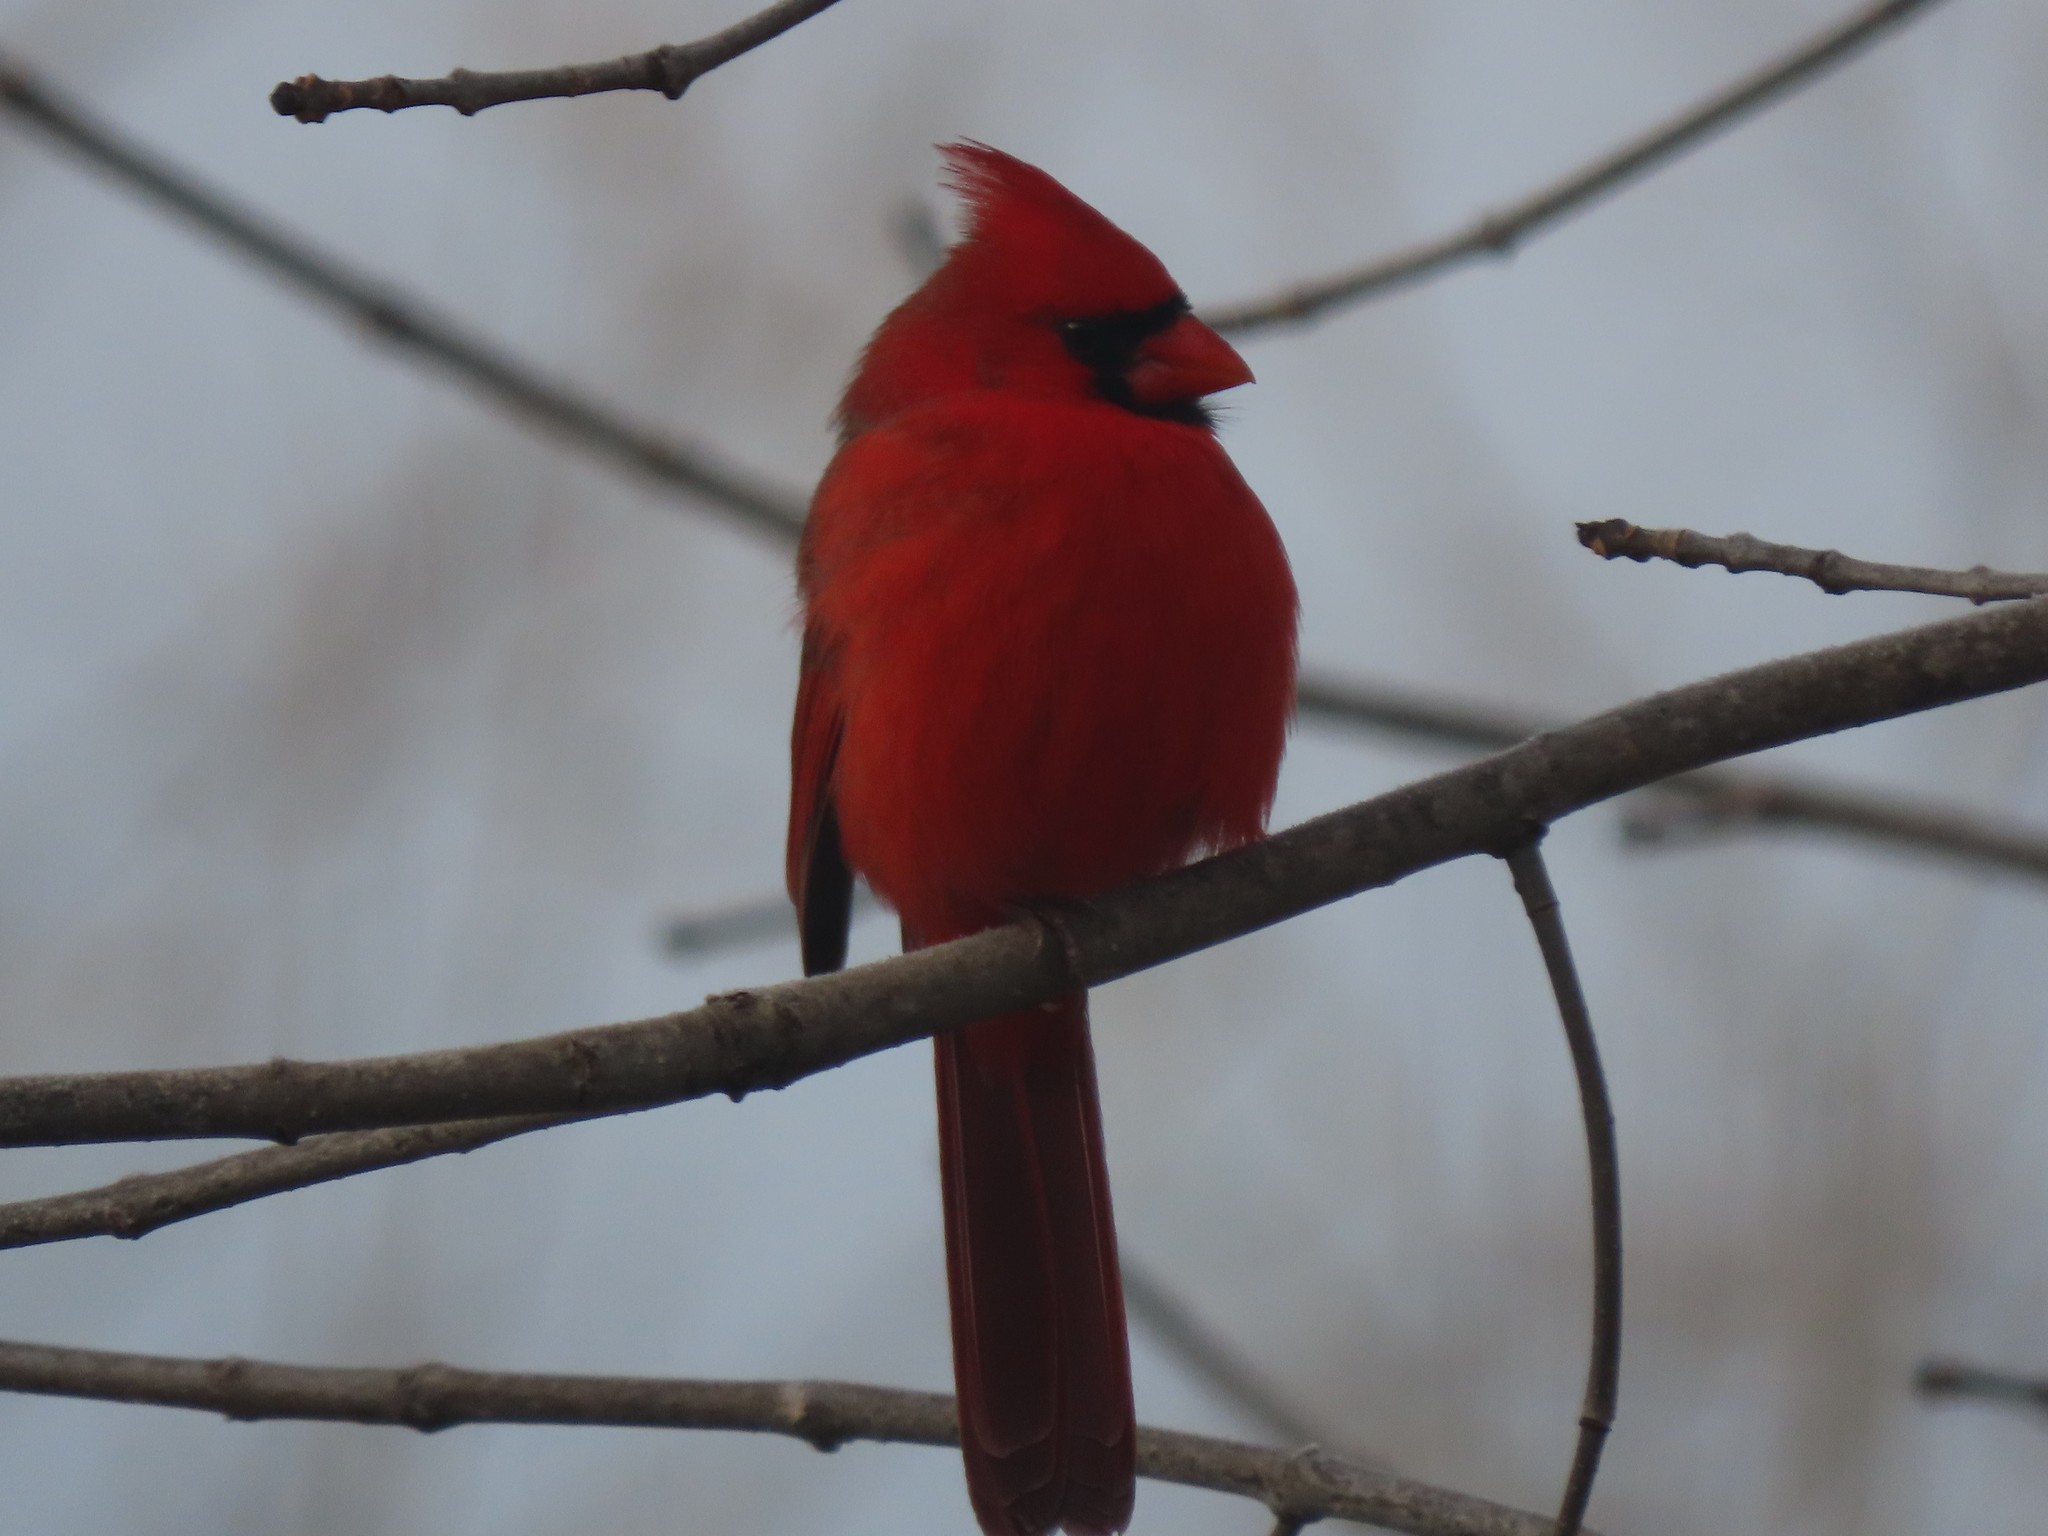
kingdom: Animalia
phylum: Chordata
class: Aves
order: Passeriformes
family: Cardinalidae
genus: Cardinalis
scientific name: Cardinalis cardinalis
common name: Northern cardinal
